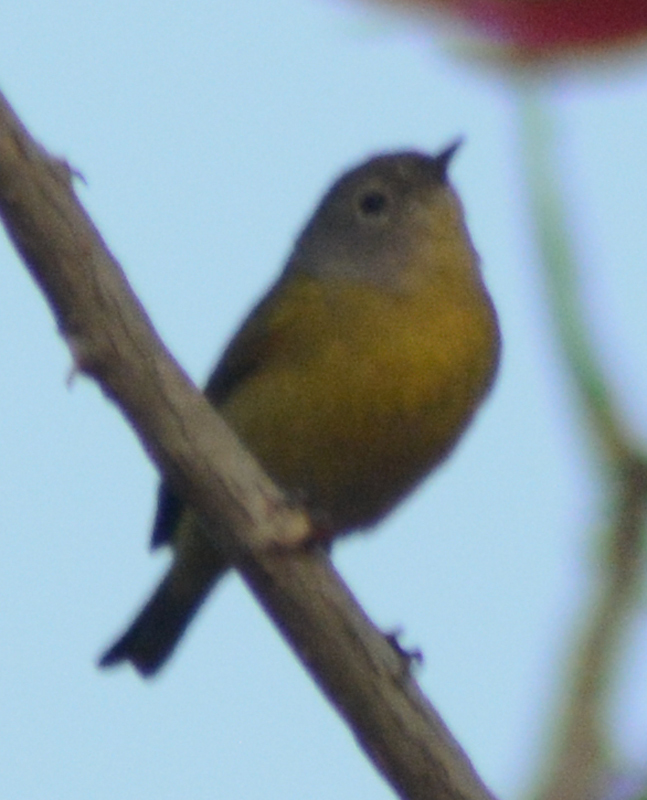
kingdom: Animalia
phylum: Chordata
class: Aves
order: Passeriformes
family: Parulidae
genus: Leiothlypis
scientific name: Leiothlypis ruficapilla
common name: Nashville warbler
